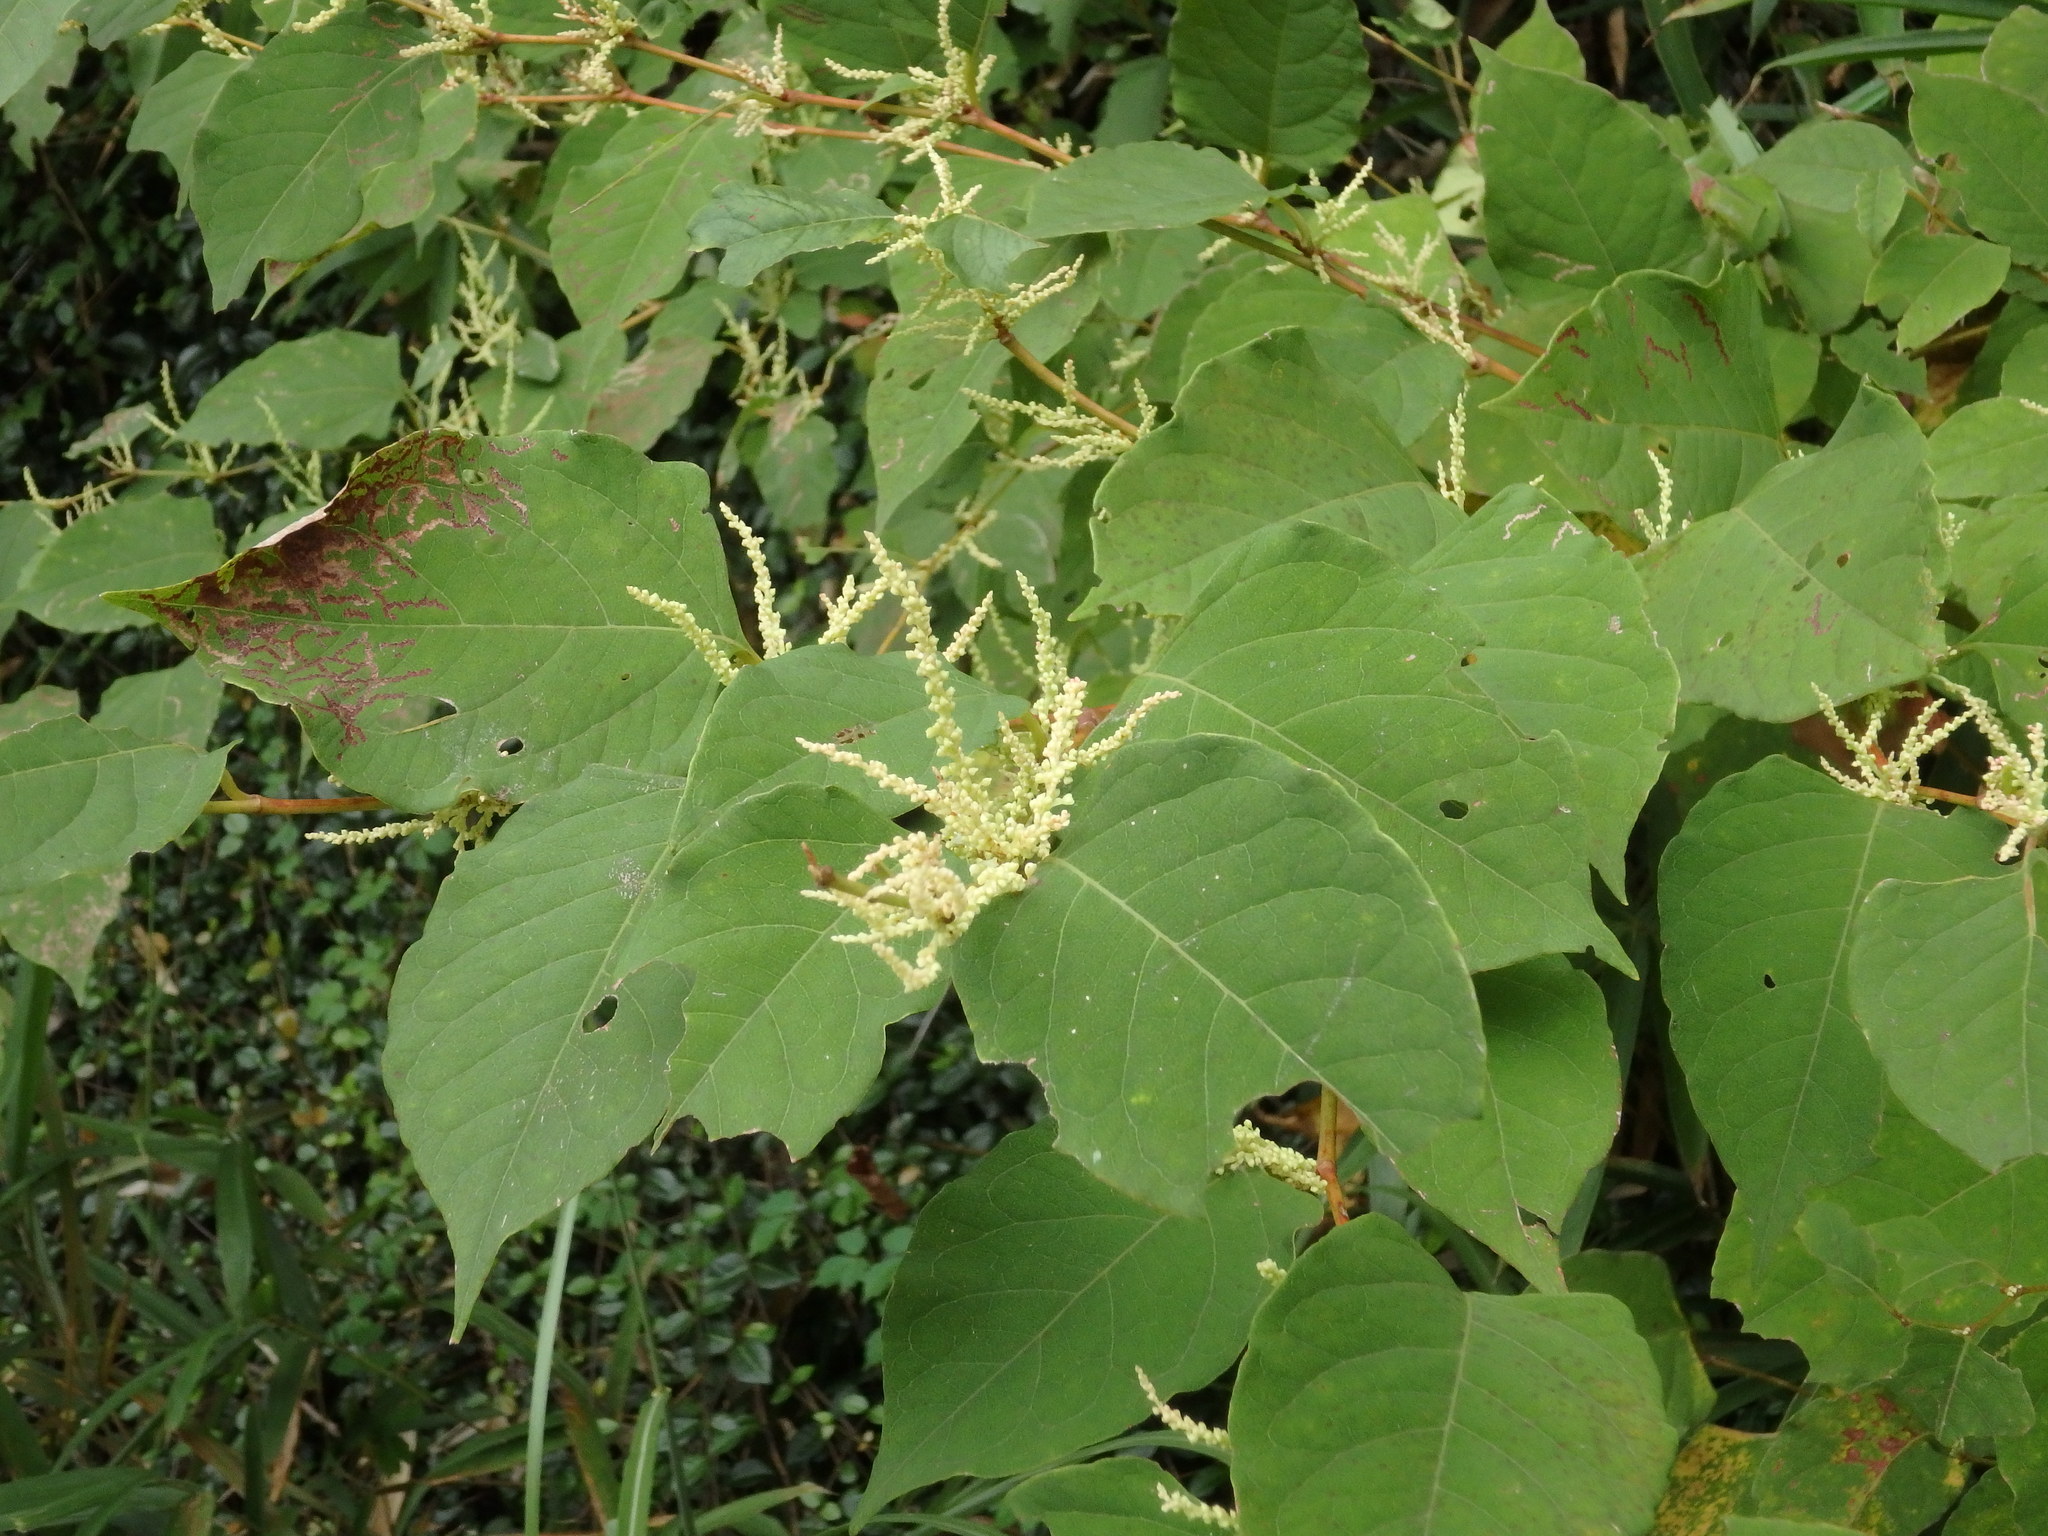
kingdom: Plantae
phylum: Tracheophyta
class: Magnoliopsida
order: Caryophyllales
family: Polygonaceae
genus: Reynoutria
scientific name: Reynoutria japonica
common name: Japanese knotweed
